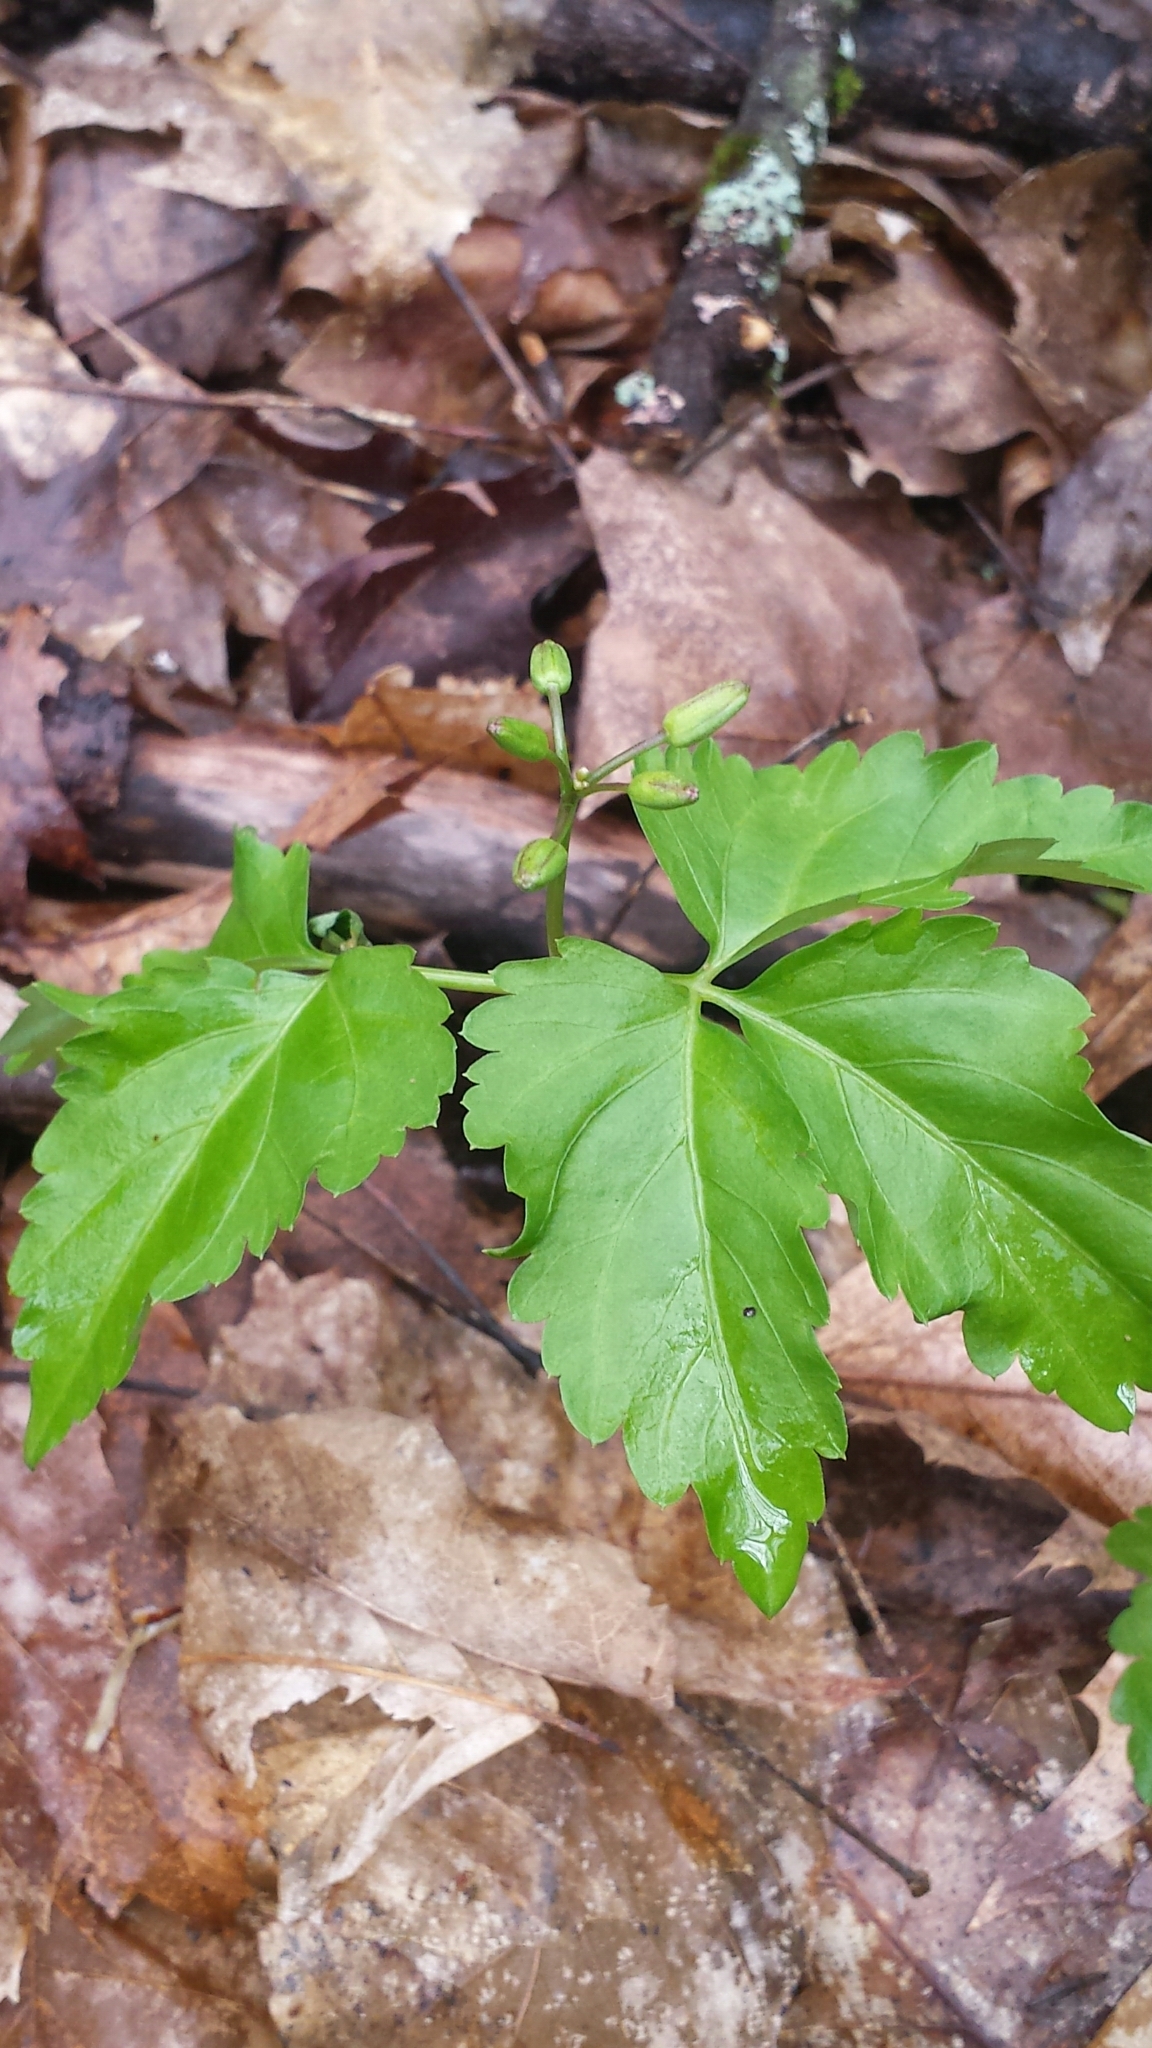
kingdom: Plantae
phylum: Tracheophyta
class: Magnoliopsida
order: Brassicales
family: Brassicaceae
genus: Cardamine
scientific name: Cardamine diphylla
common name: Broad-leaved toothwort
